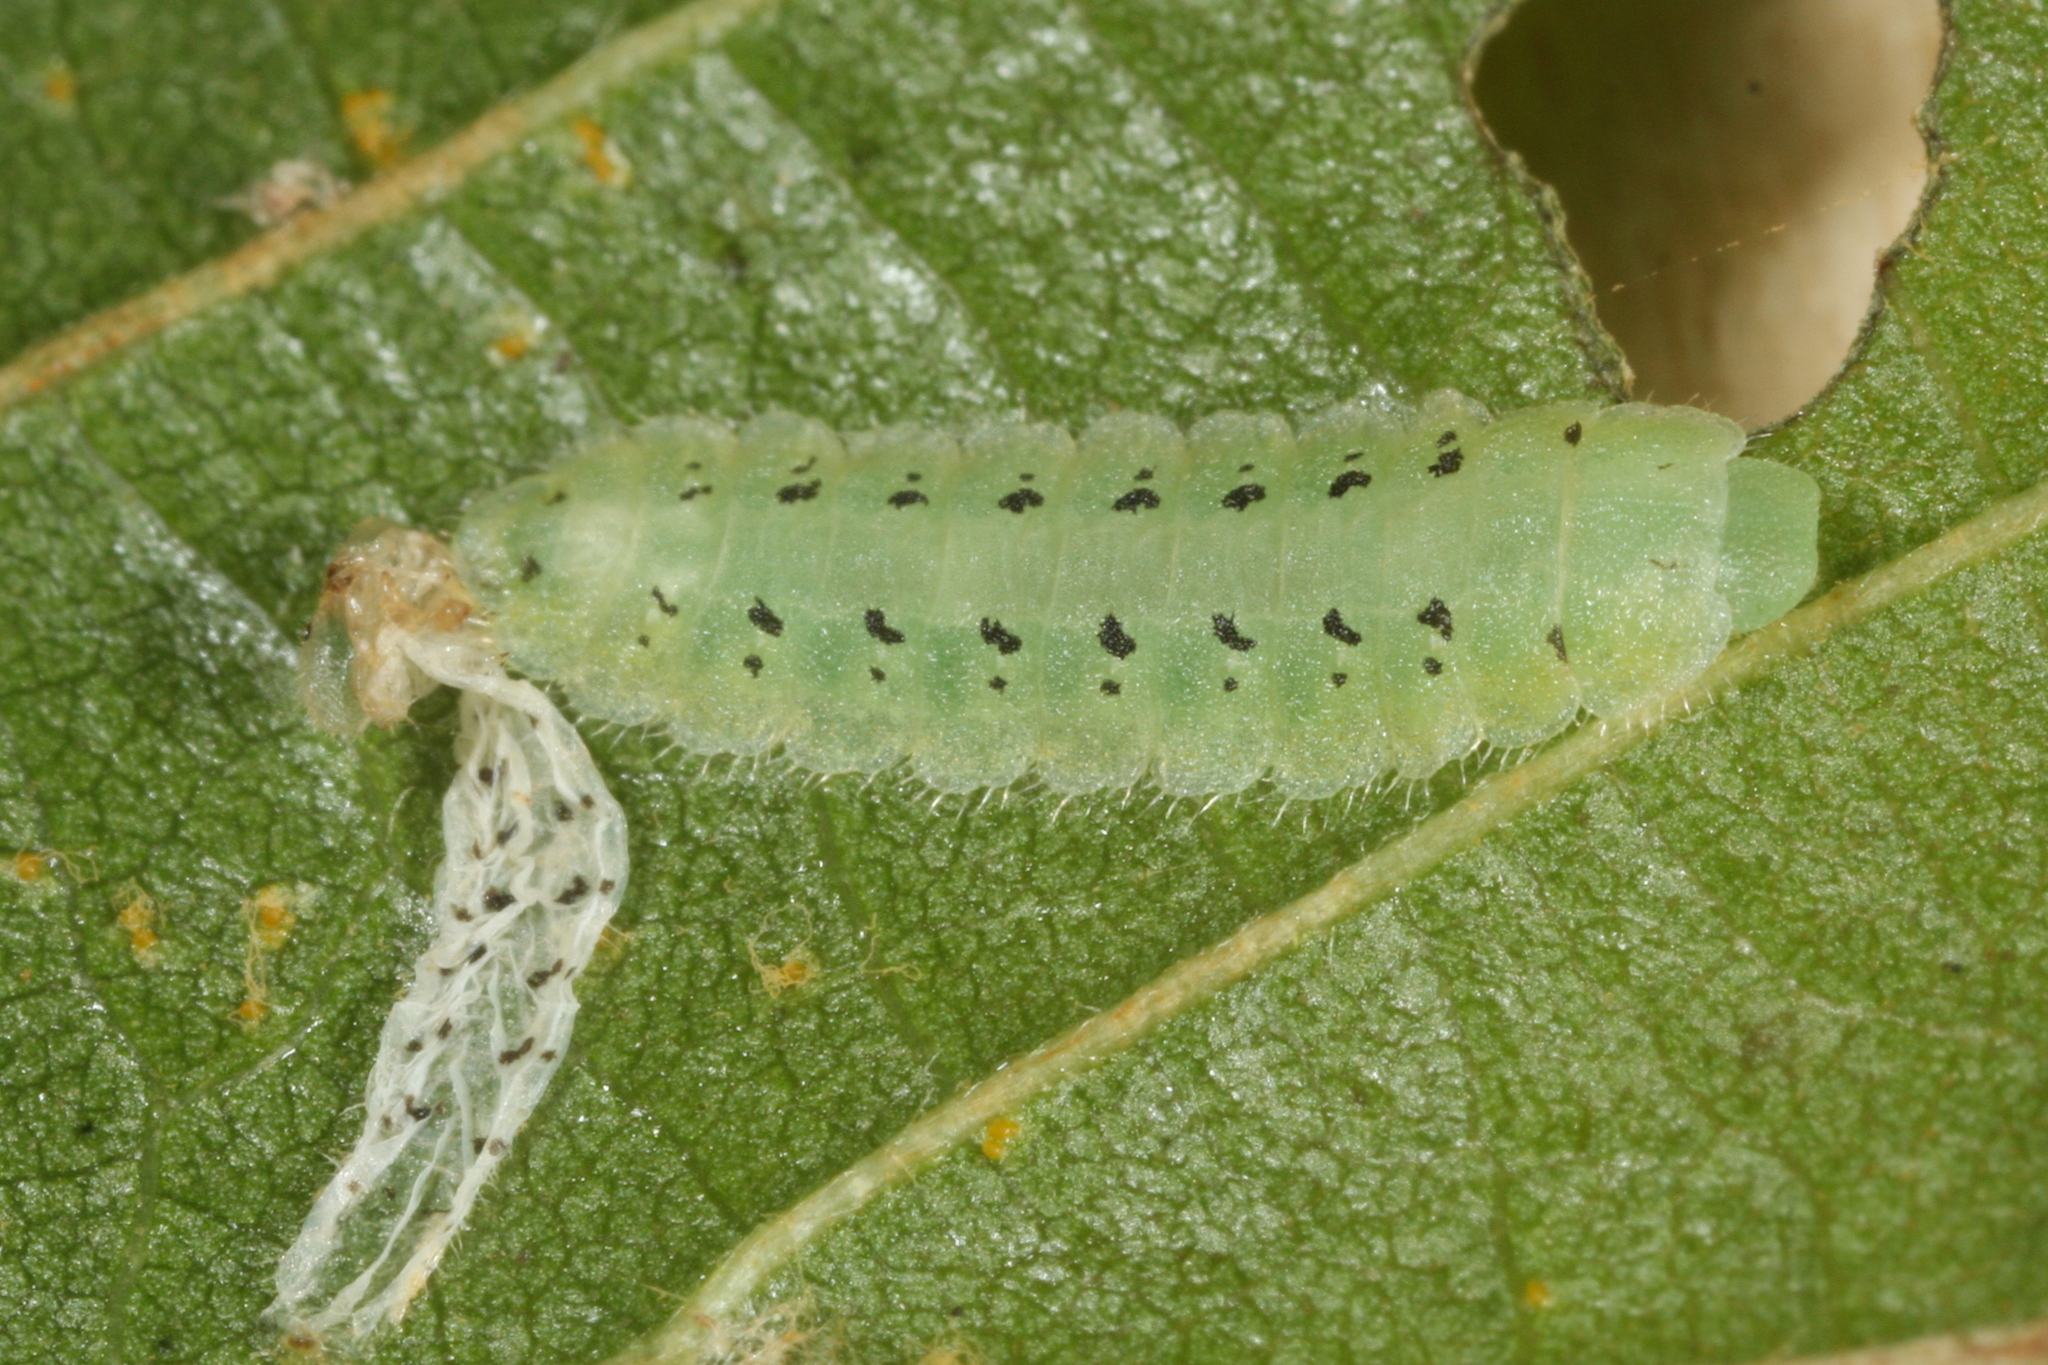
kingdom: Animalia
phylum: Arthropoda
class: Insecta
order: Hymenoptera
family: Tenthredinidae
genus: Platycampus
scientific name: Platycampus luridiventris
